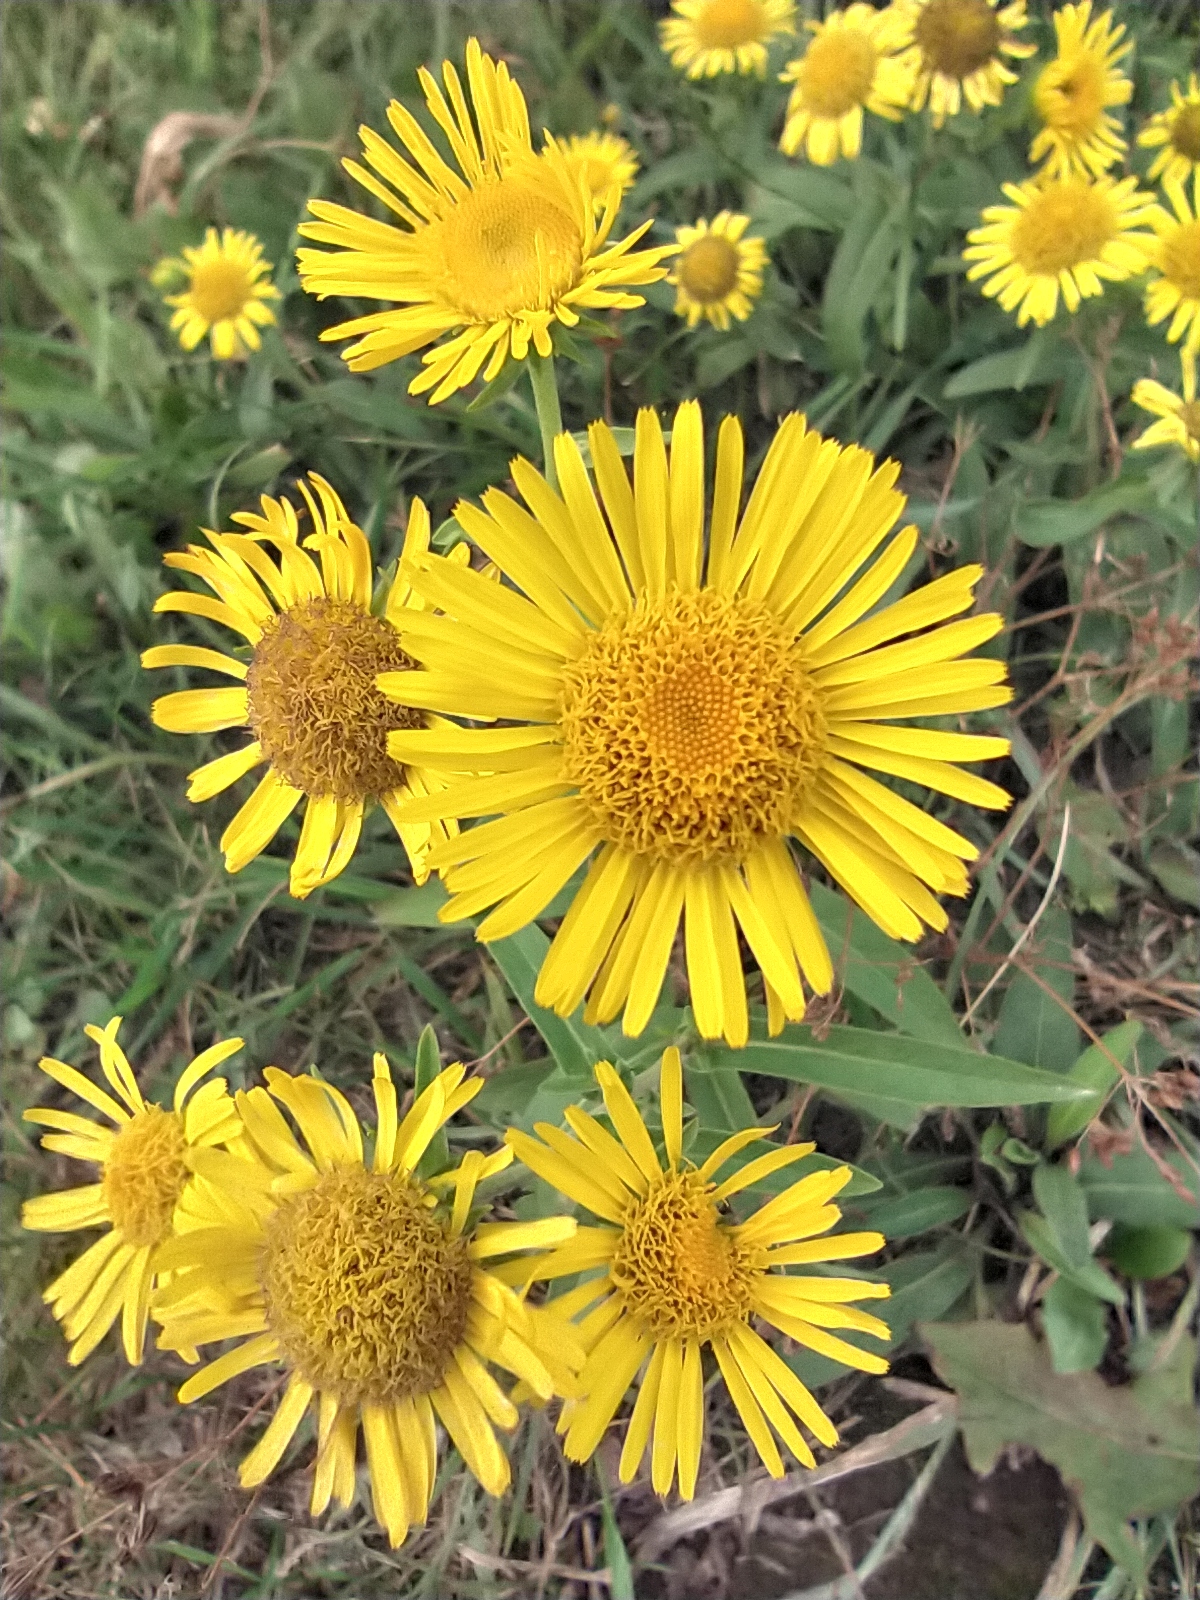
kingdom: Plantae
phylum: Tracheophyta
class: Magnoliopsida
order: Asterales
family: Asteraceae
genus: Pentanema
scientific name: Pentanema britannicum
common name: British elecampane
